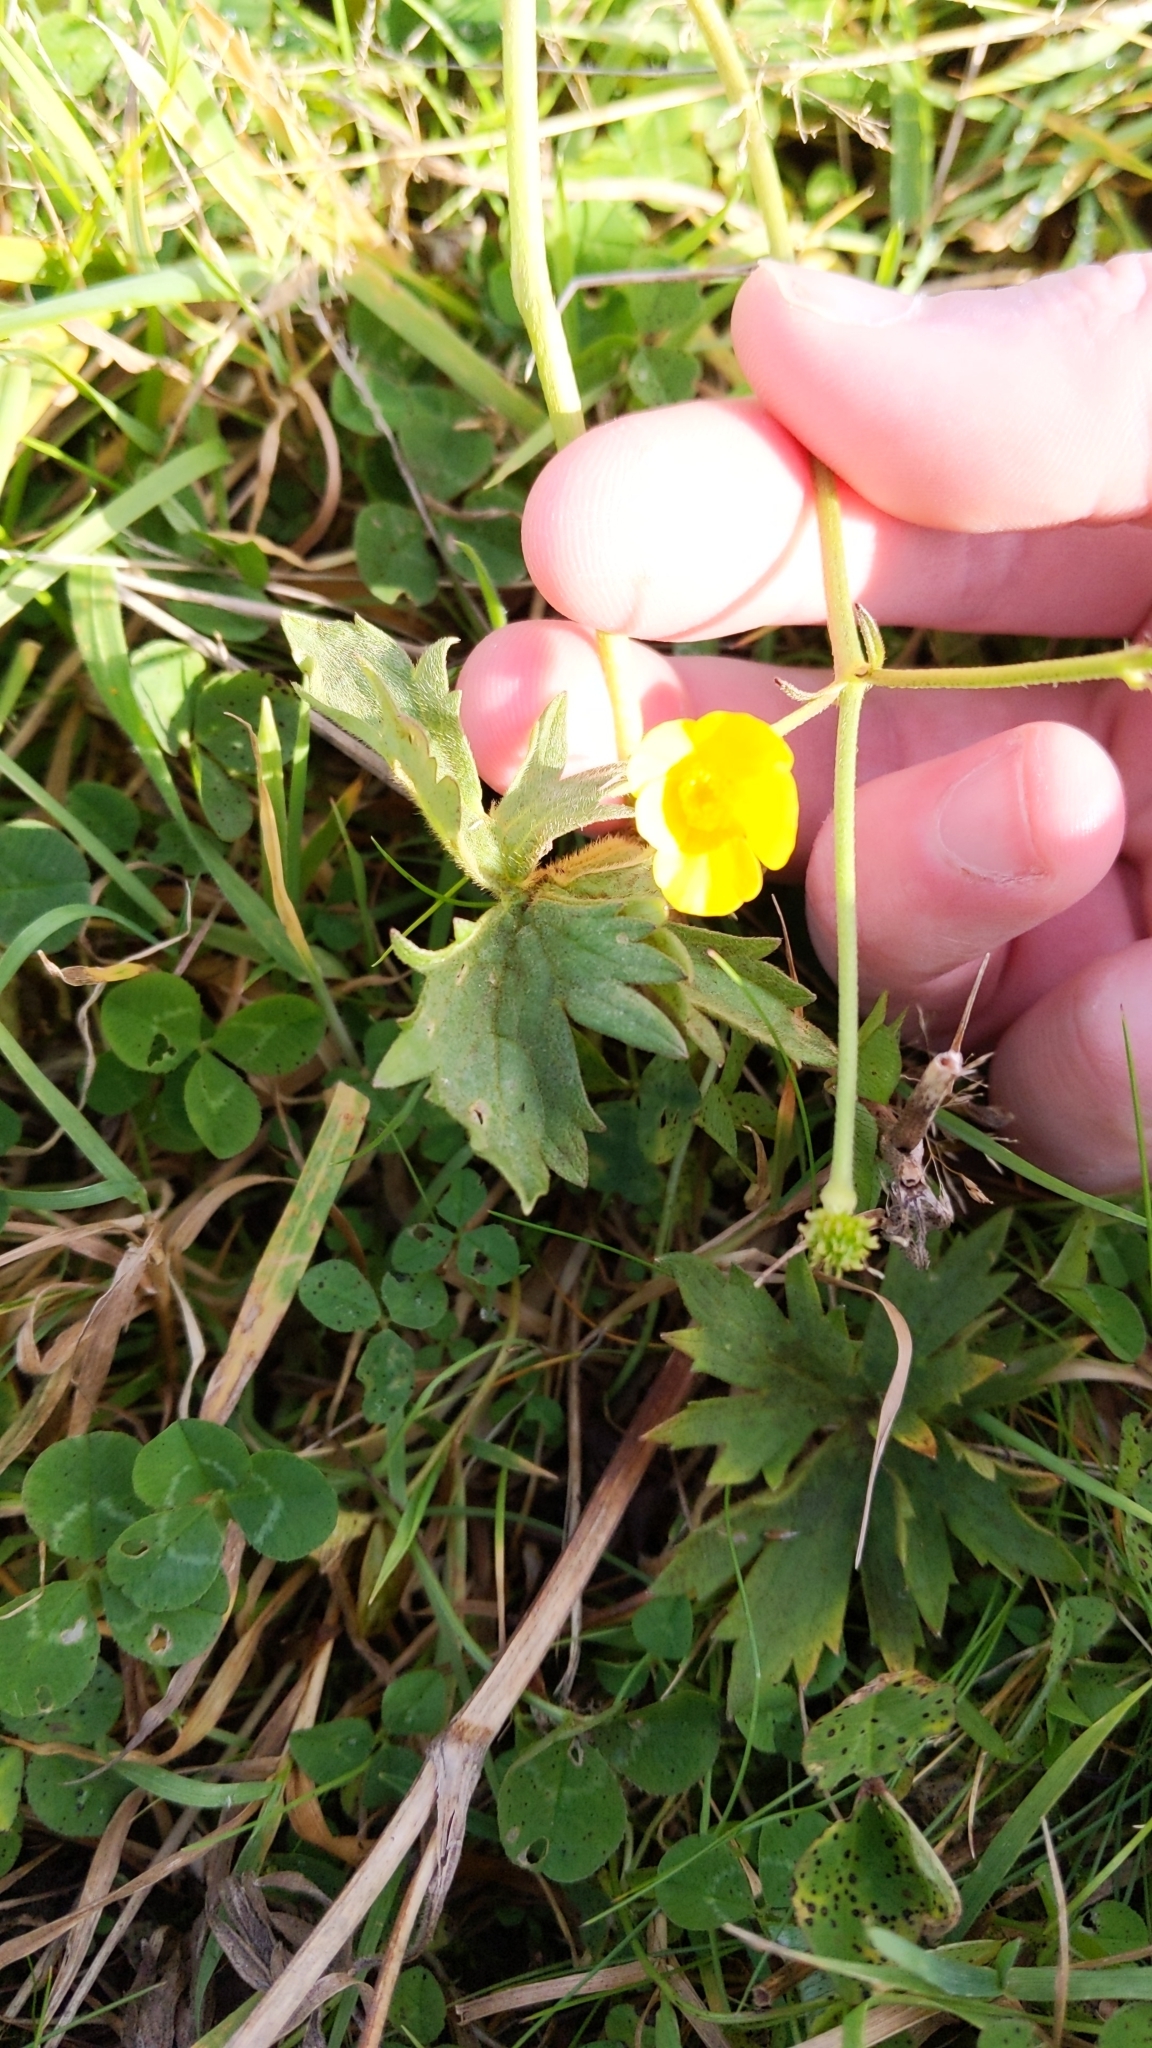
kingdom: Plantae
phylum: Tracheophyta
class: Magnoliopsida
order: Ranunculales
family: Ranunculaceae
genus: Ranunculus
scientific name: Ranunculus repens
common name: Creeping buttercup
